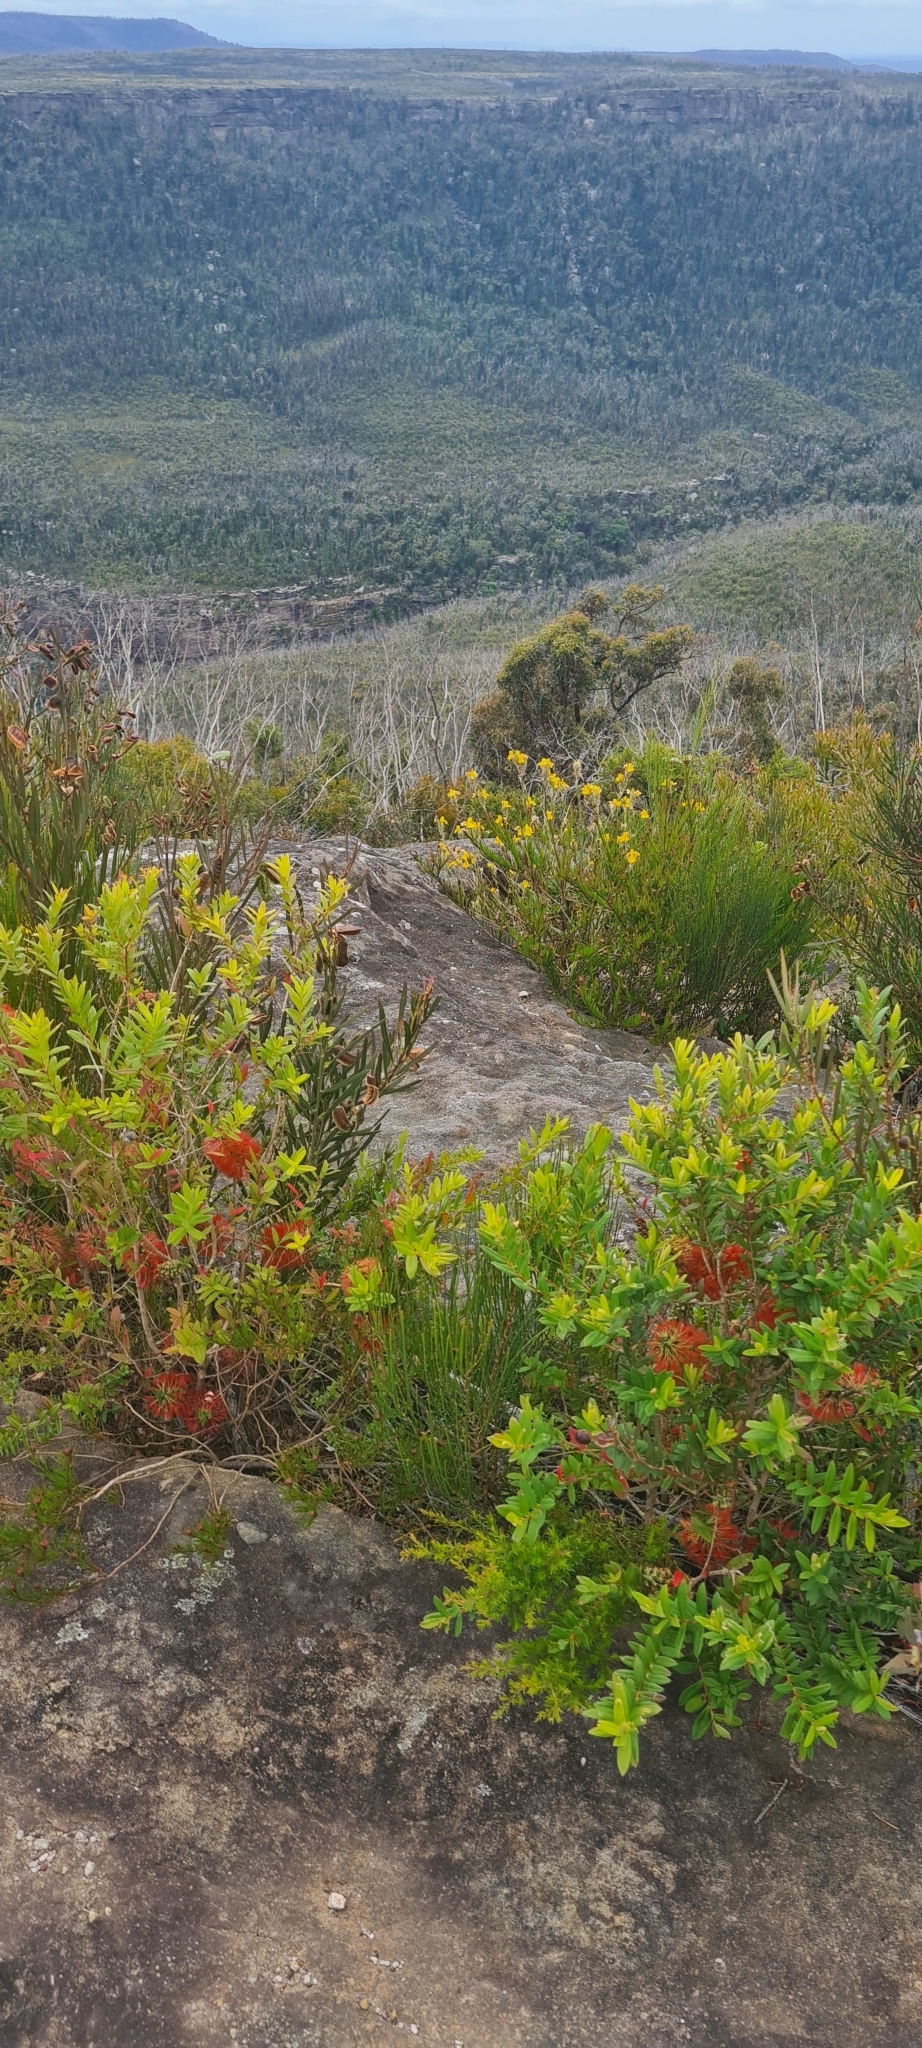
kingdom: Plantae
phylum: Tracheophyta
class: Magnoliopsida
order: Myrtales
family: Myrtaceae
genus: Melaleuca
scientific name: Melaleuca hypericifolia
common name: Red honey myrtle
